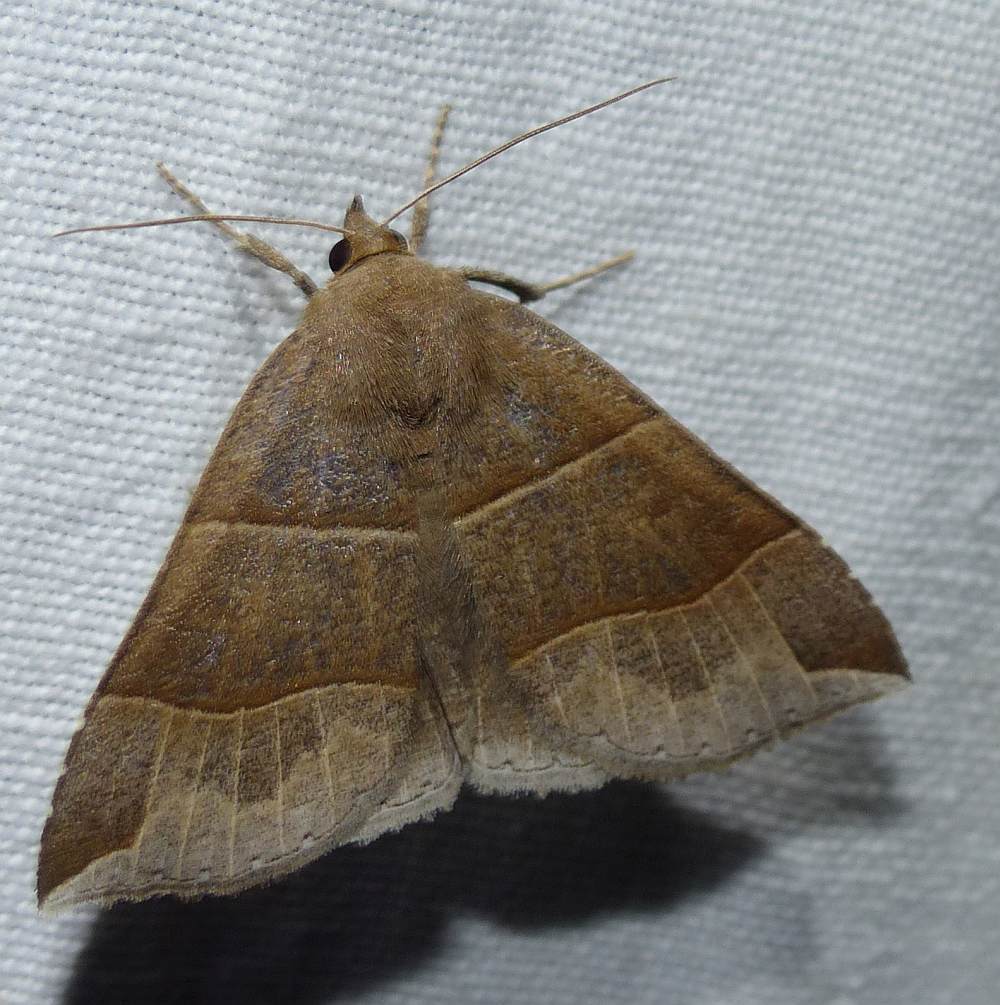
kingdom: Animalia
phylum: Arthropoda
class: Insecta
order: Lepidoptera
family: Erebidae
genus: Parallelia
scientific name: Parallelia bistriaris
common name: Maple looper moth
